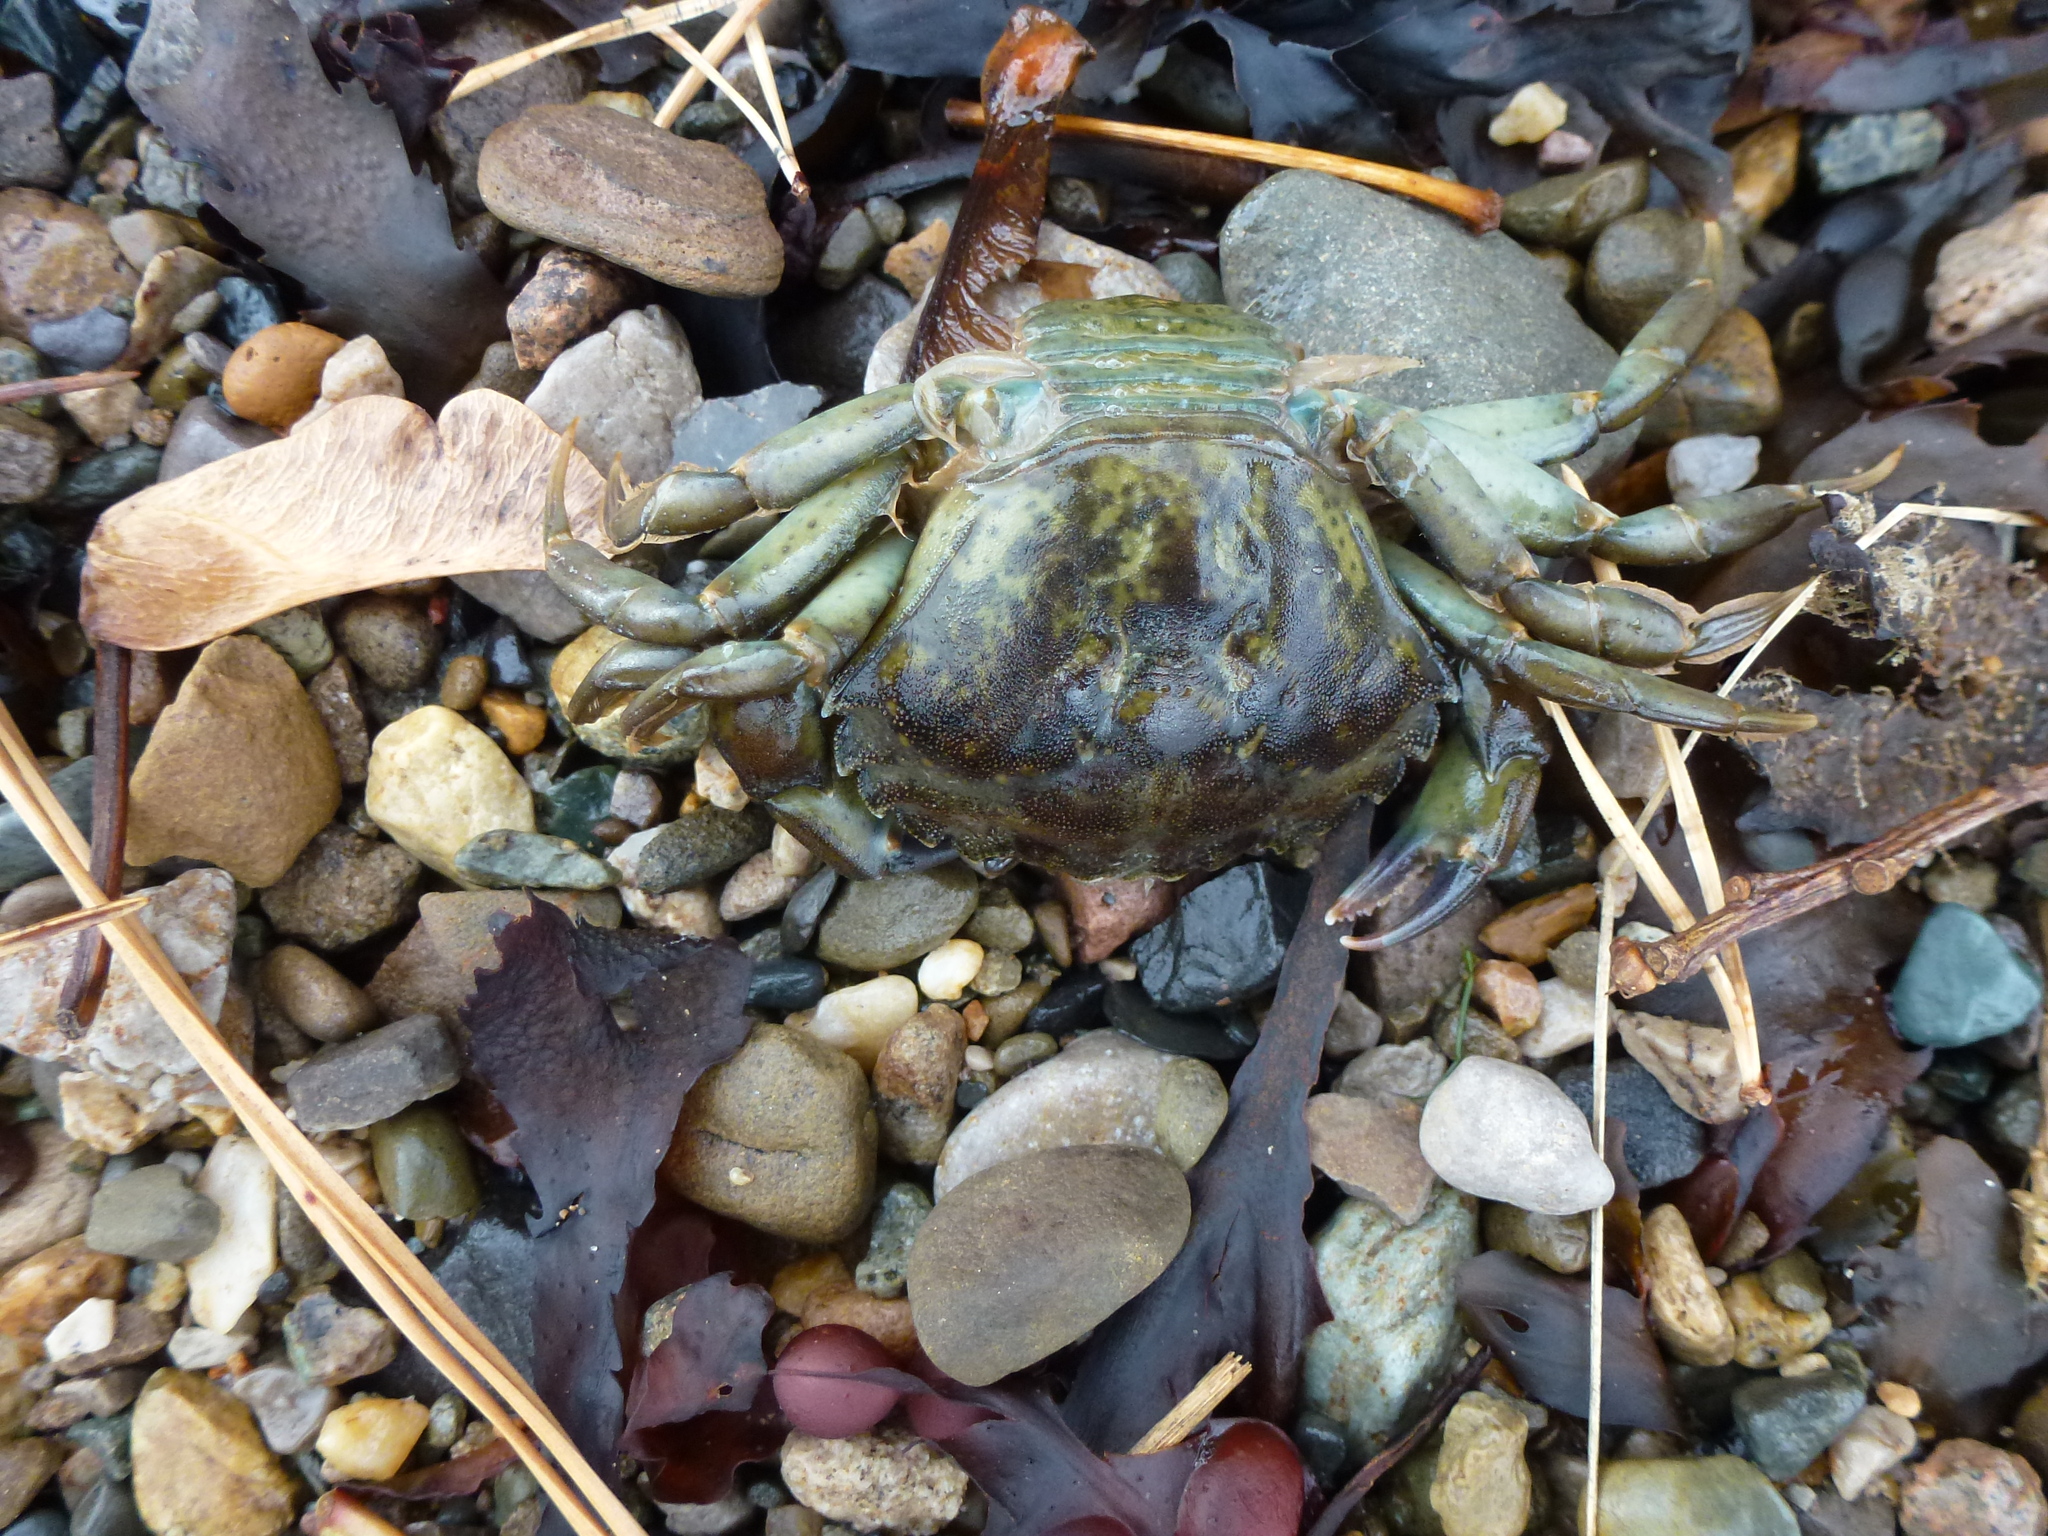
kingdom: Animalia
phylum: Arthropoda
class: Malacostraca
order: Decapoda
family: Carcinidae
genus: Carcinus
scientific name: Carcinus maenas
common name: European green crab
